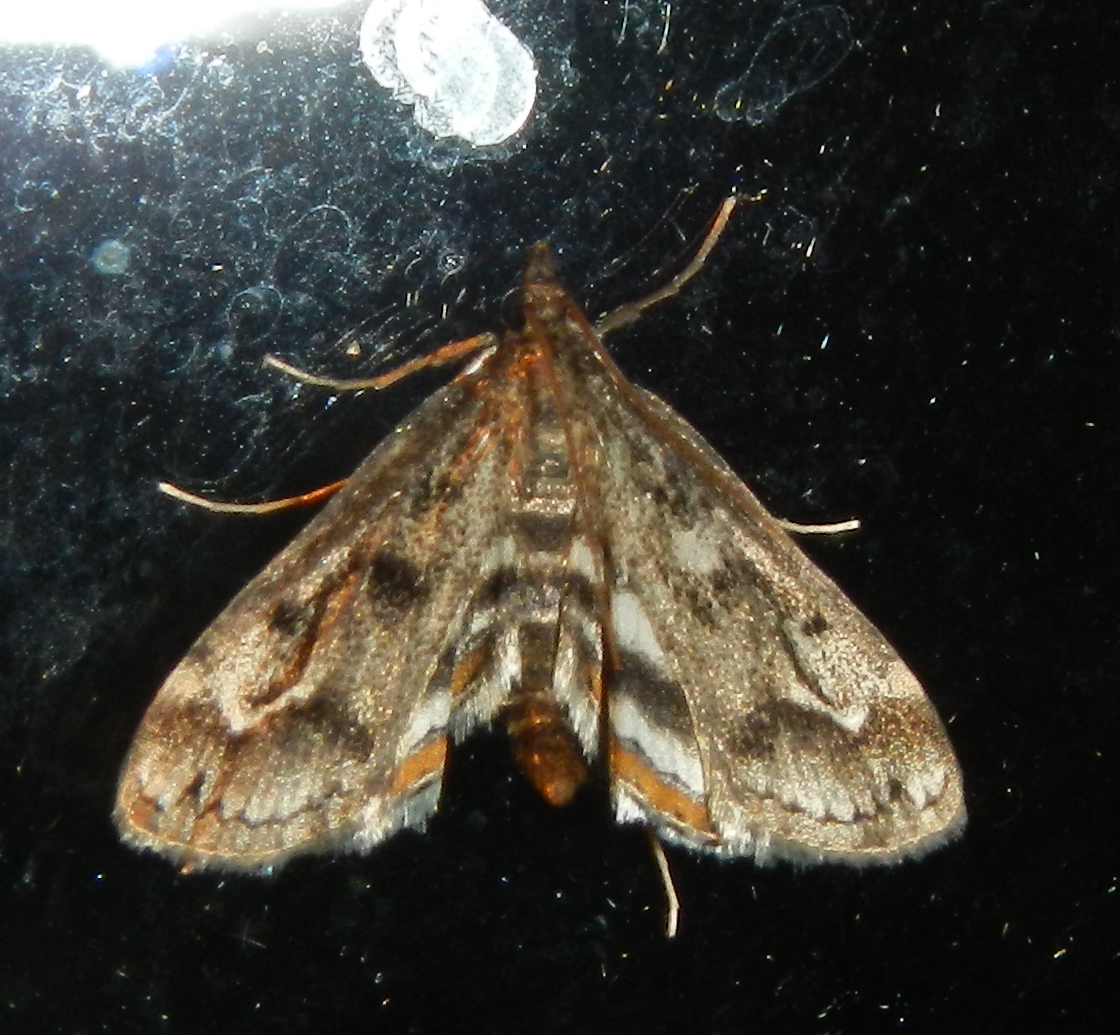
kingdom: Animalia
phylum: Arthropoda
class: Insecta
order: Lepidoptera
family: Crambidae
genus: Parapoynx
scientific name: Parapoynx obscuralis
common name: American china-mark
